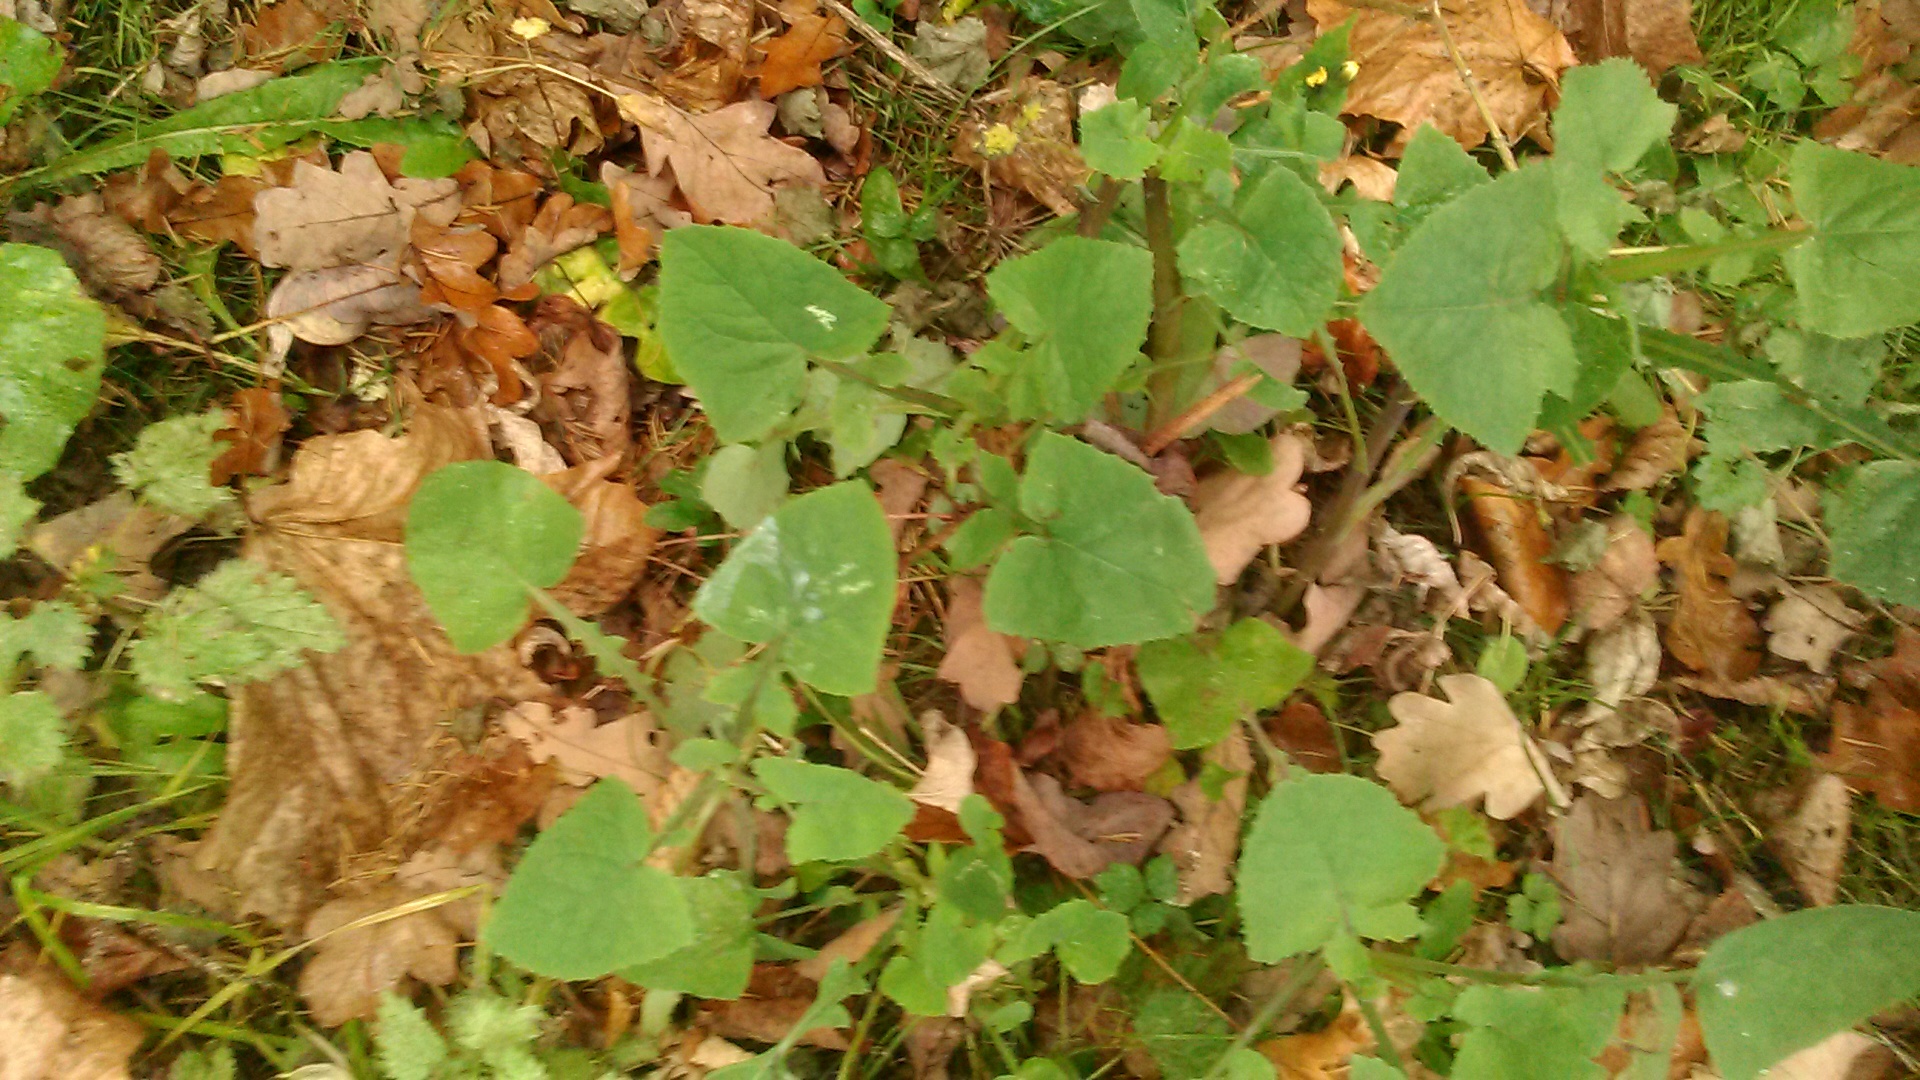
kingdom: Plantae
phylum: Tracheophyta
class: Magnoliopsida
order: Asterales
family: Asteraceae
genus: Sonchus
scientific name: Sonchus oleraceus
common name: Common sowthistle
